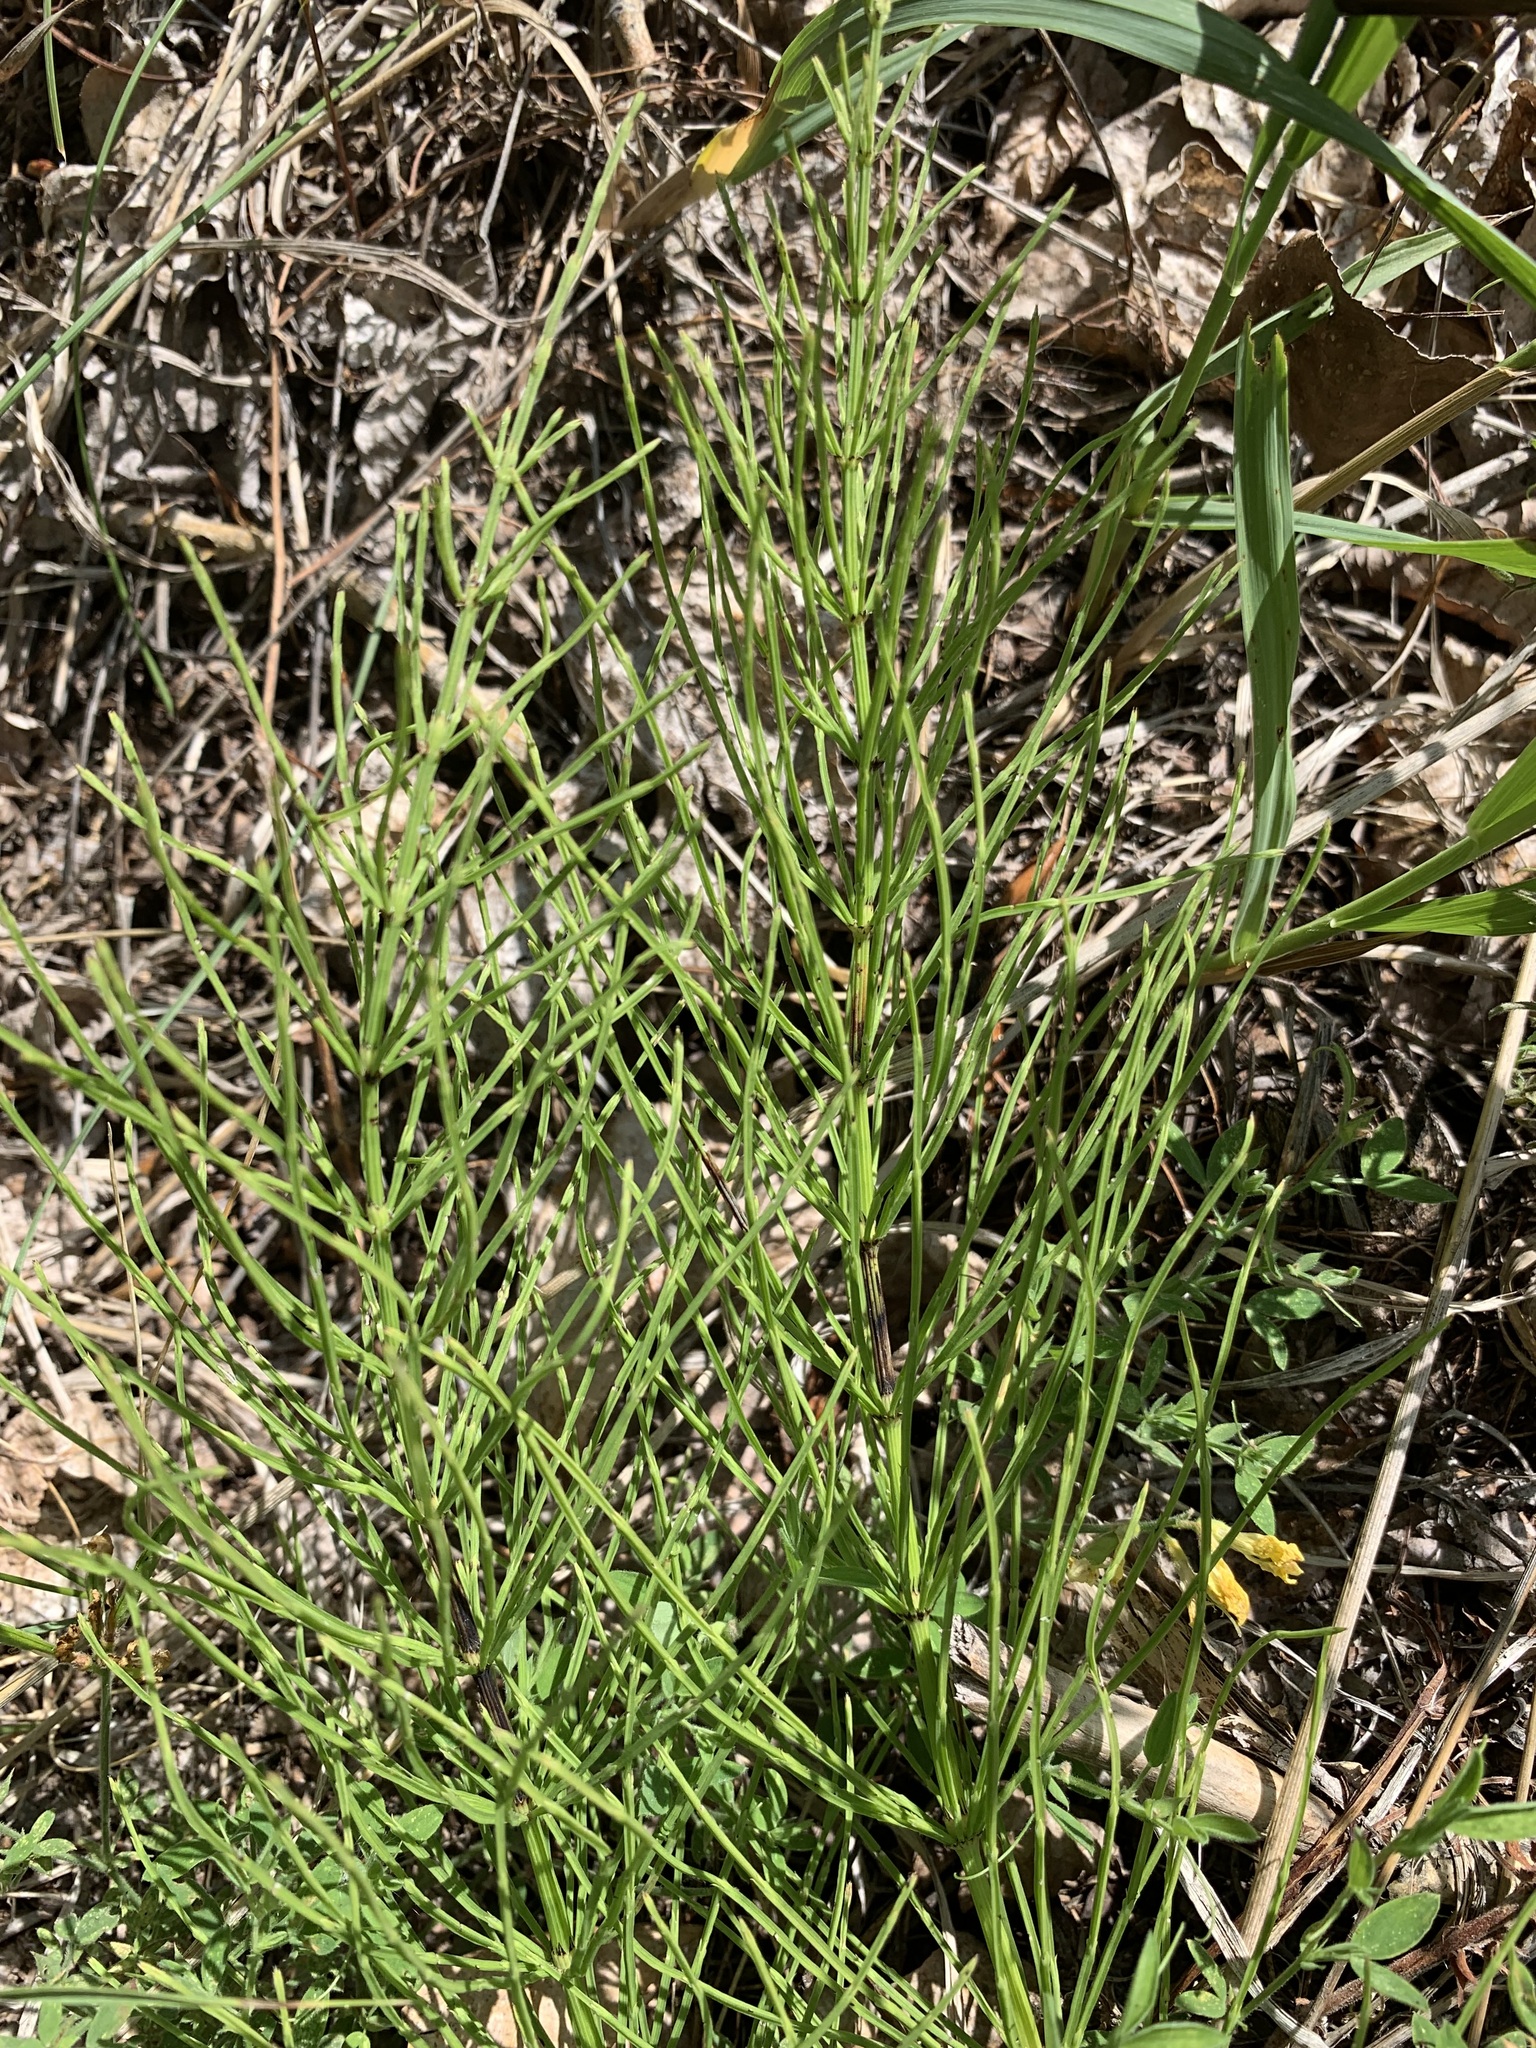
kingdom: Plantae
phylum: Tracheophyta
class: Polypodiopsida
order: Equisetales
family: Equisetaceae
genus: Equisetum
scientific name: Equisetum arvense
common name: Field horsetail
